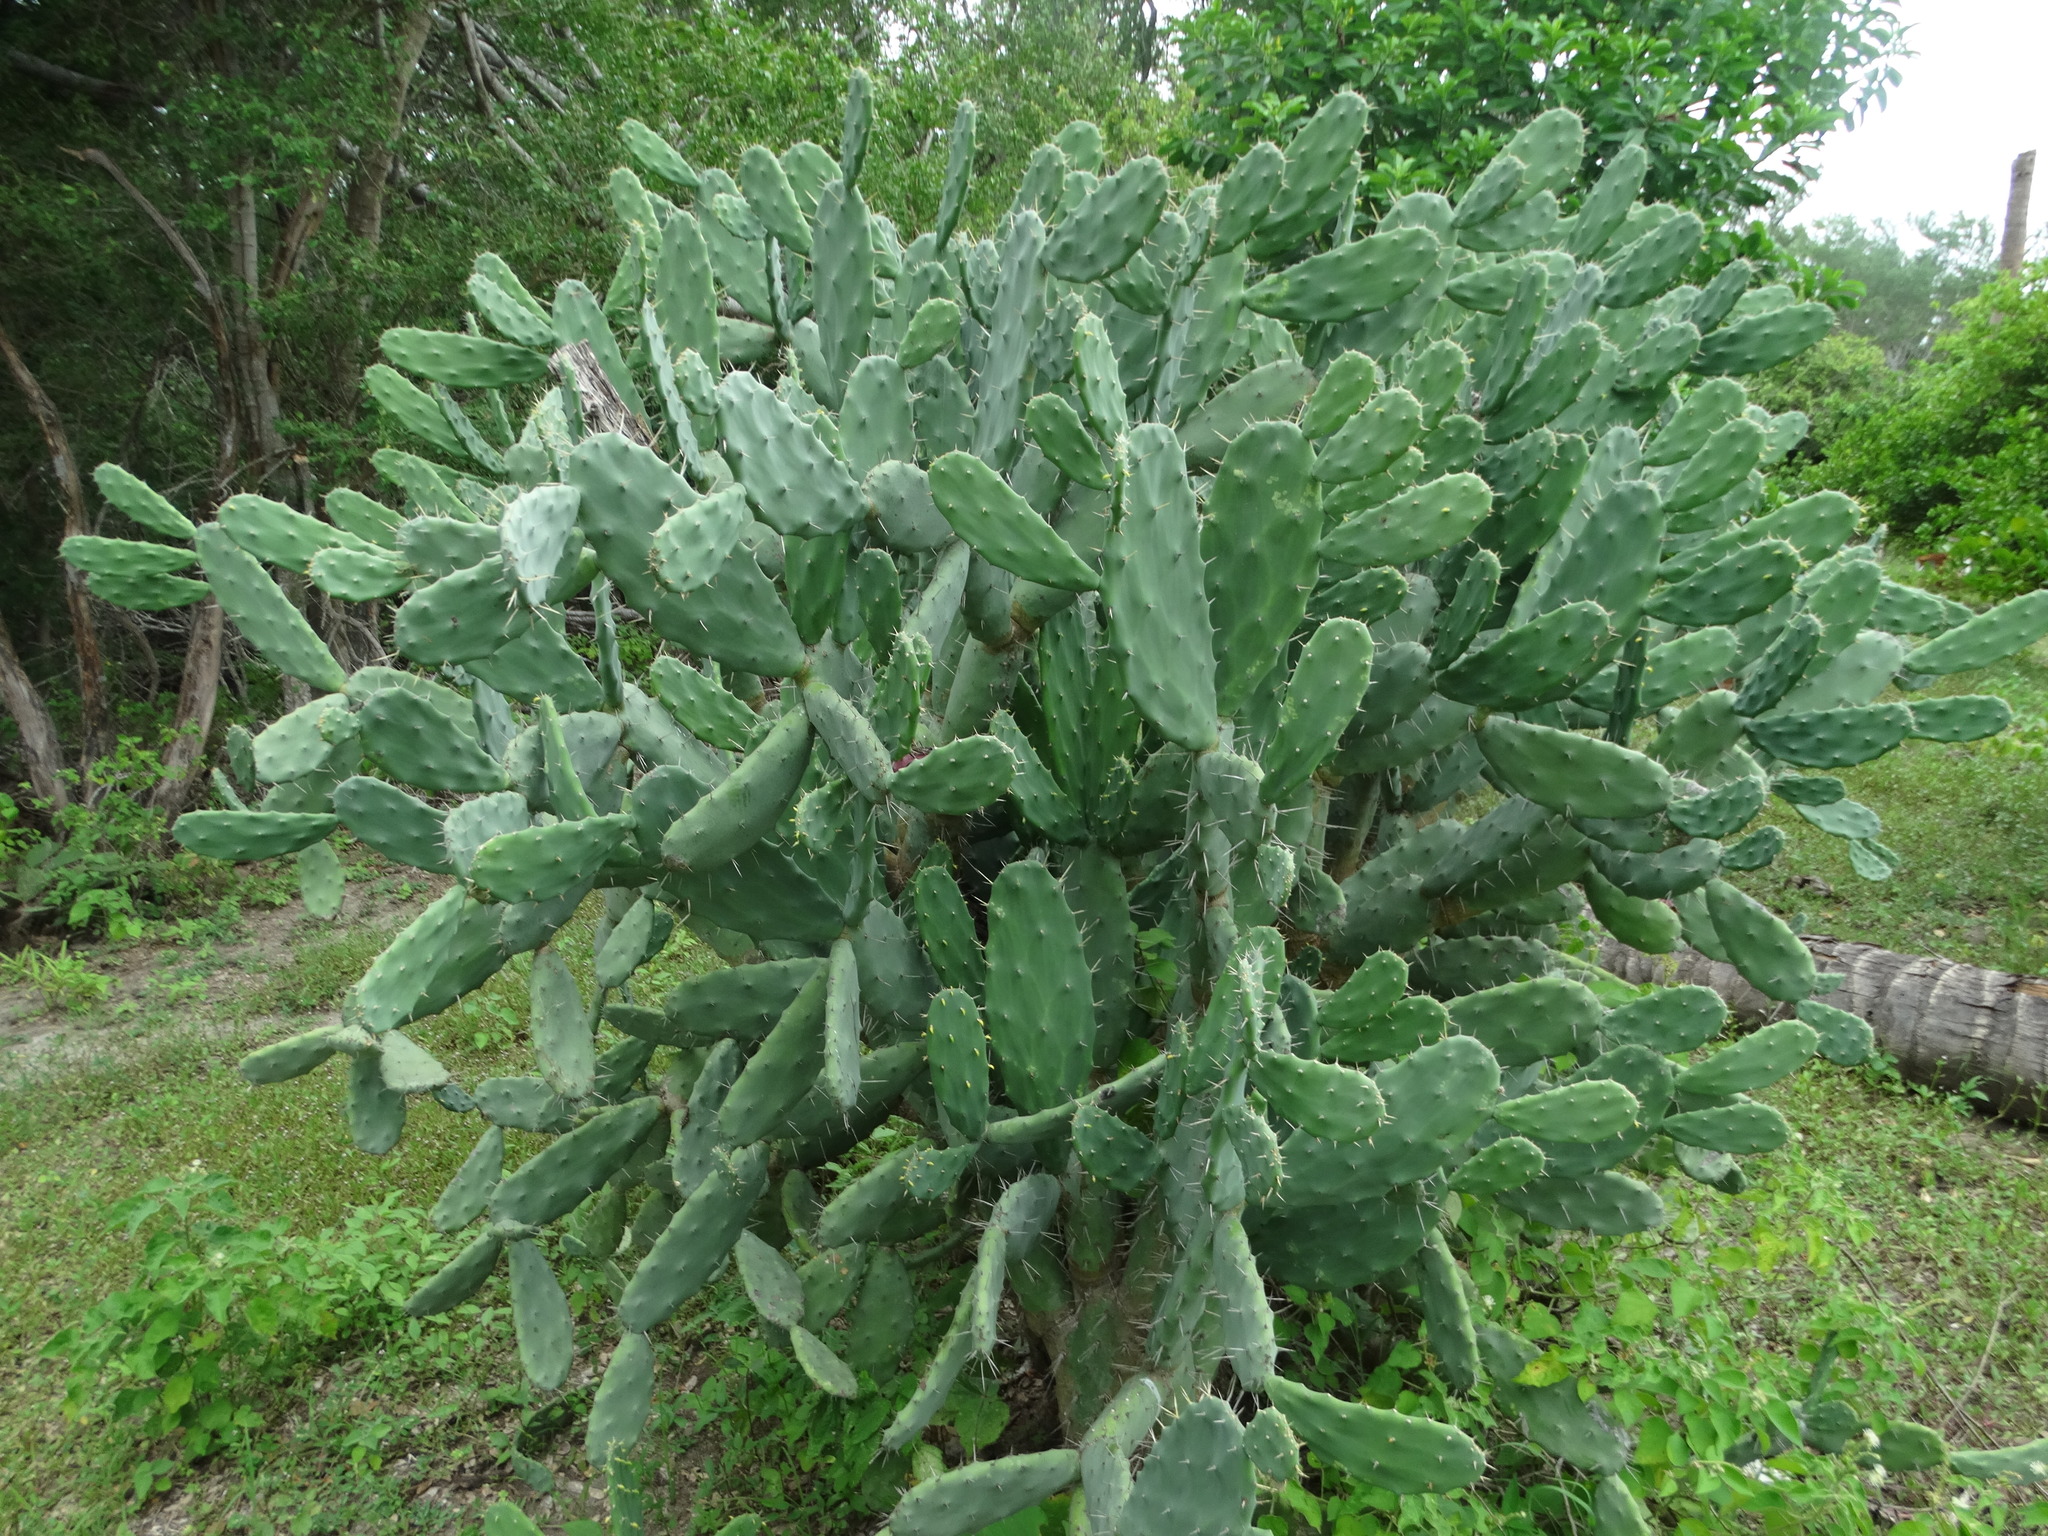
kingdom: Plantae
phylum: Tracheophyta
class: Magnoliopsida
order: Caryophyllales
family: Cactaceae
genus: Opuntia
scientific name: Opuntia dejecta
